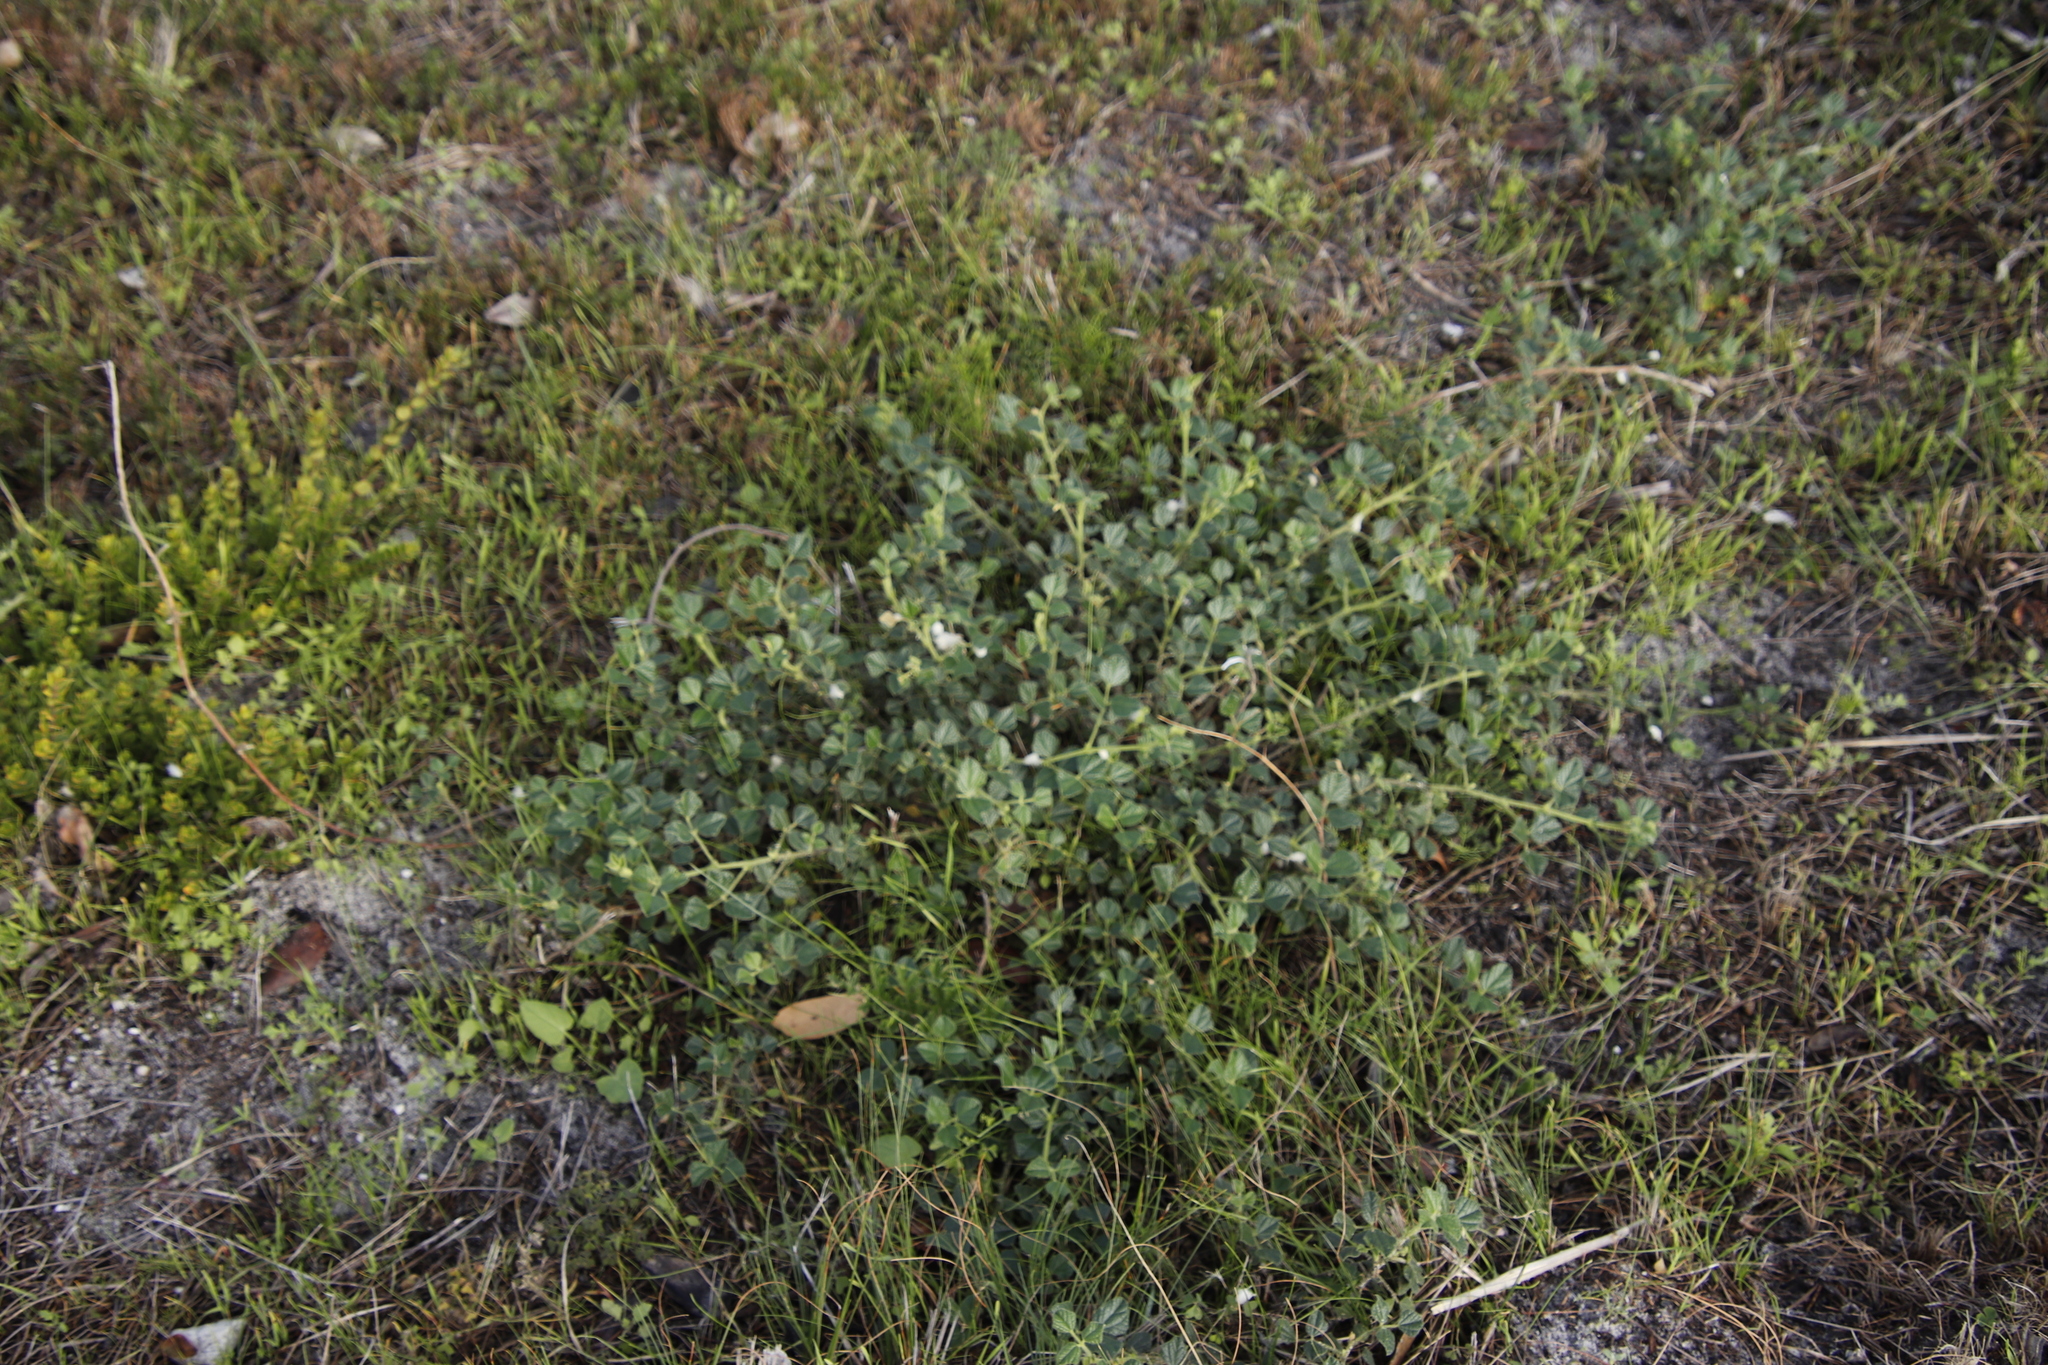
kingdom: Plantae
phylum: Tracheophyta
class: Magnoliopsida
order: Fabales
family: Fabaceae
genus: Bolusafra
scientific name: Bolusafra bituminosa
